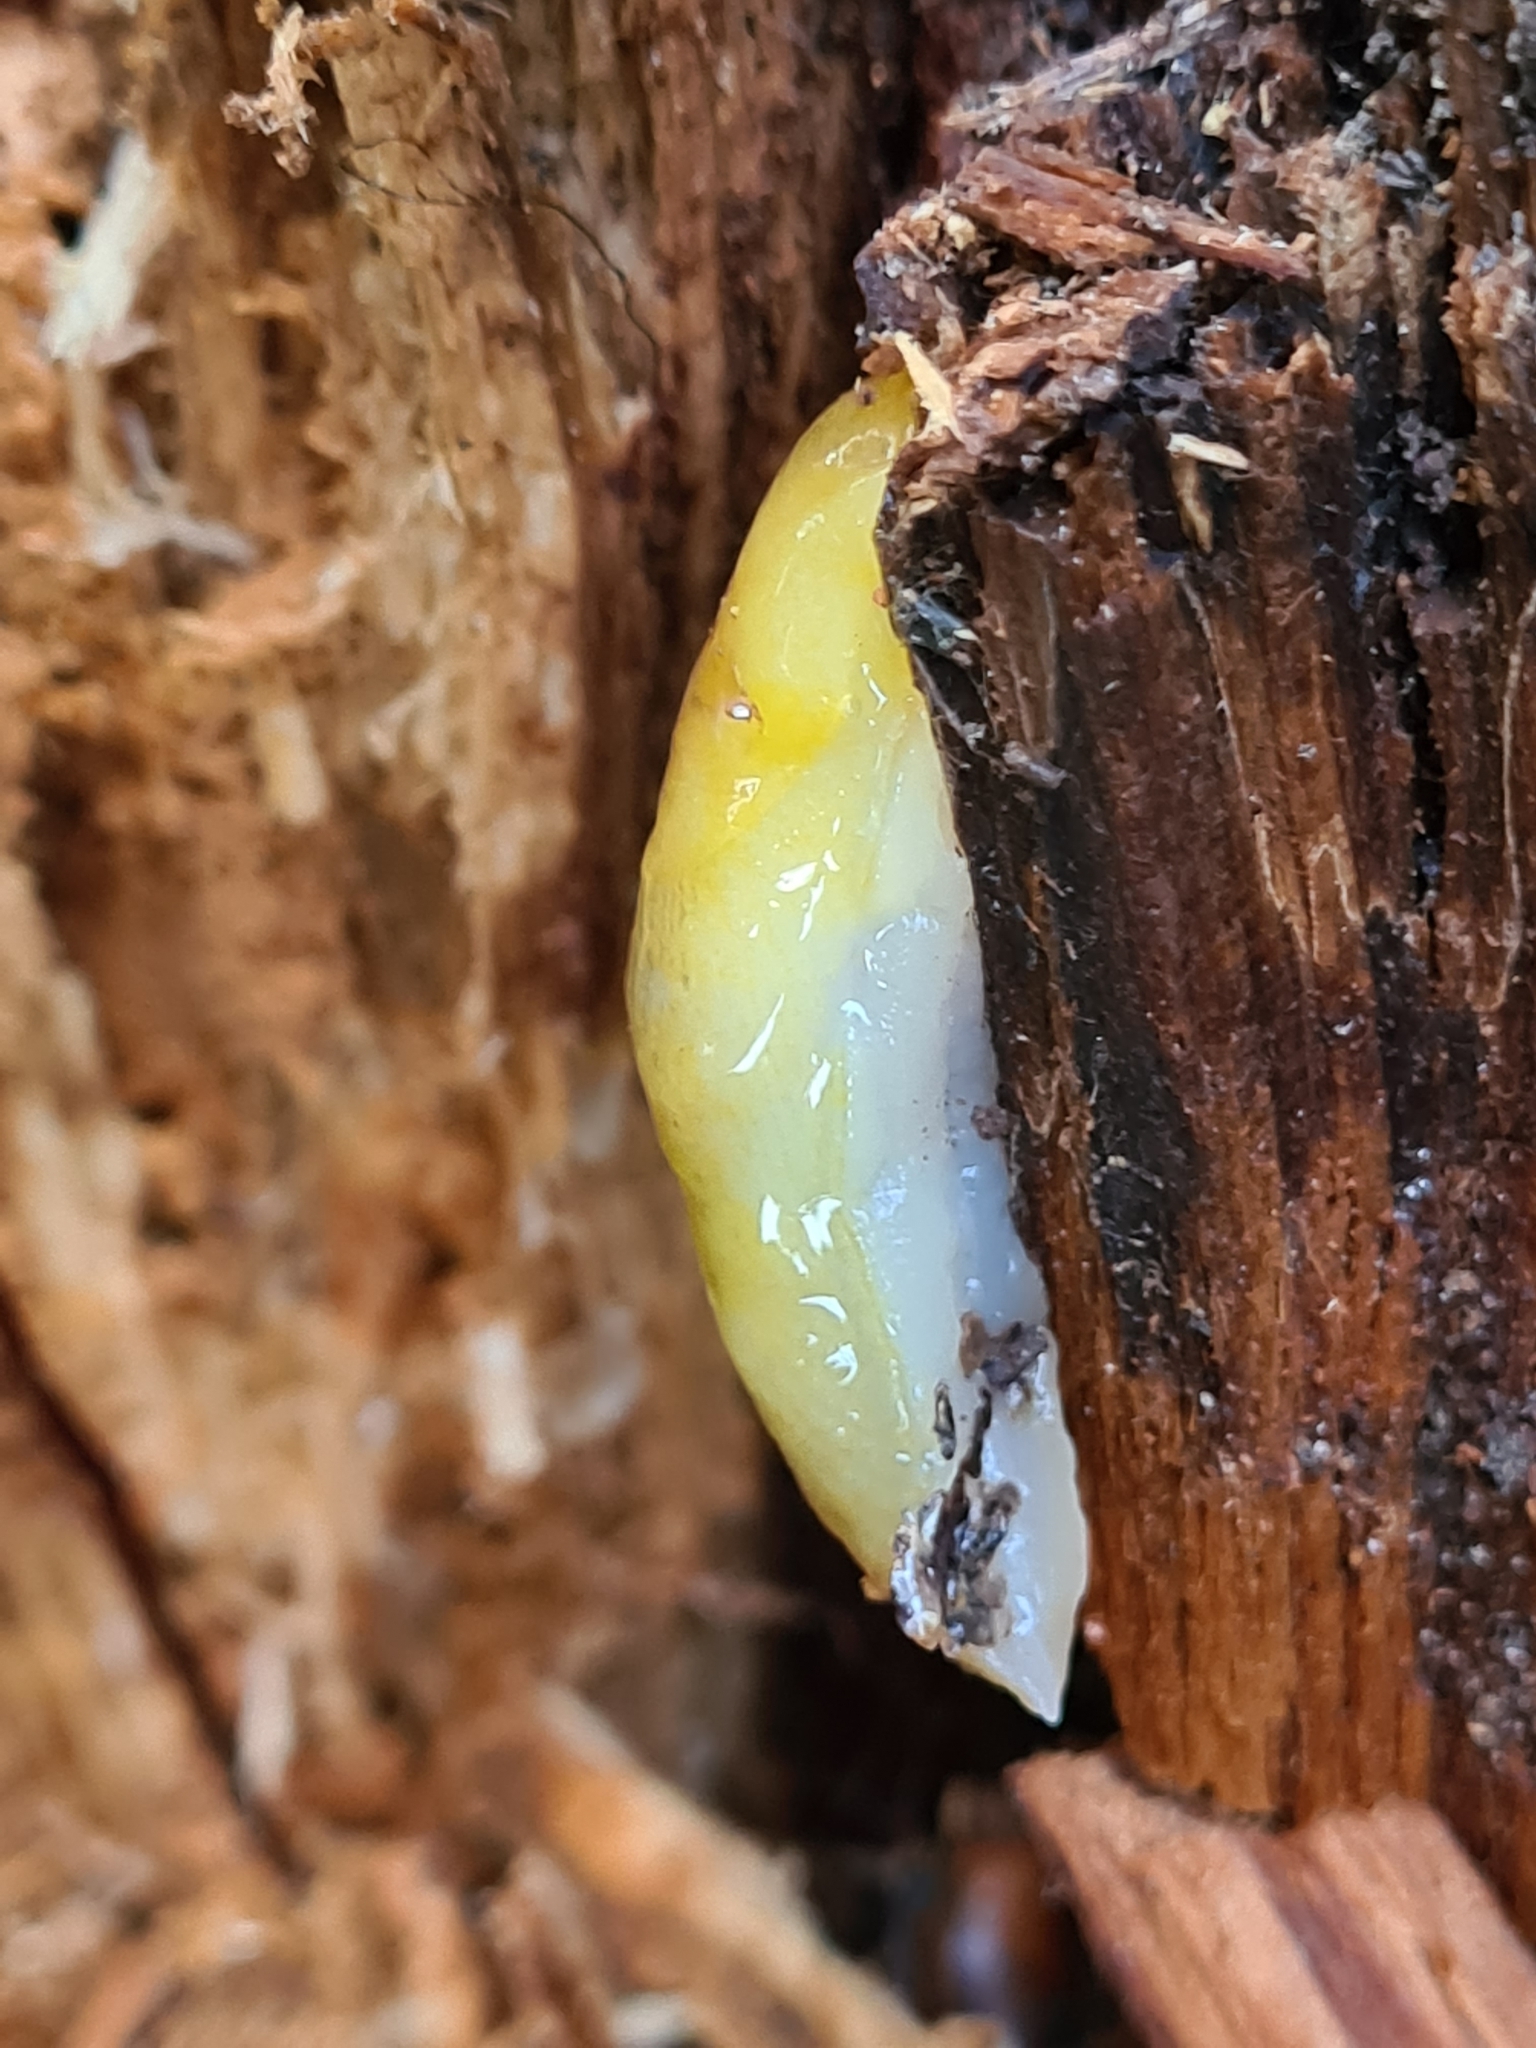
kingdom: Animalia
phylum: Mollusca
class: Gastropoda
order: Stylommatophora
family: Limacidae
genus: Malacolimax
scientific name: Malacolimax tenellus
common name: Lemon slug
